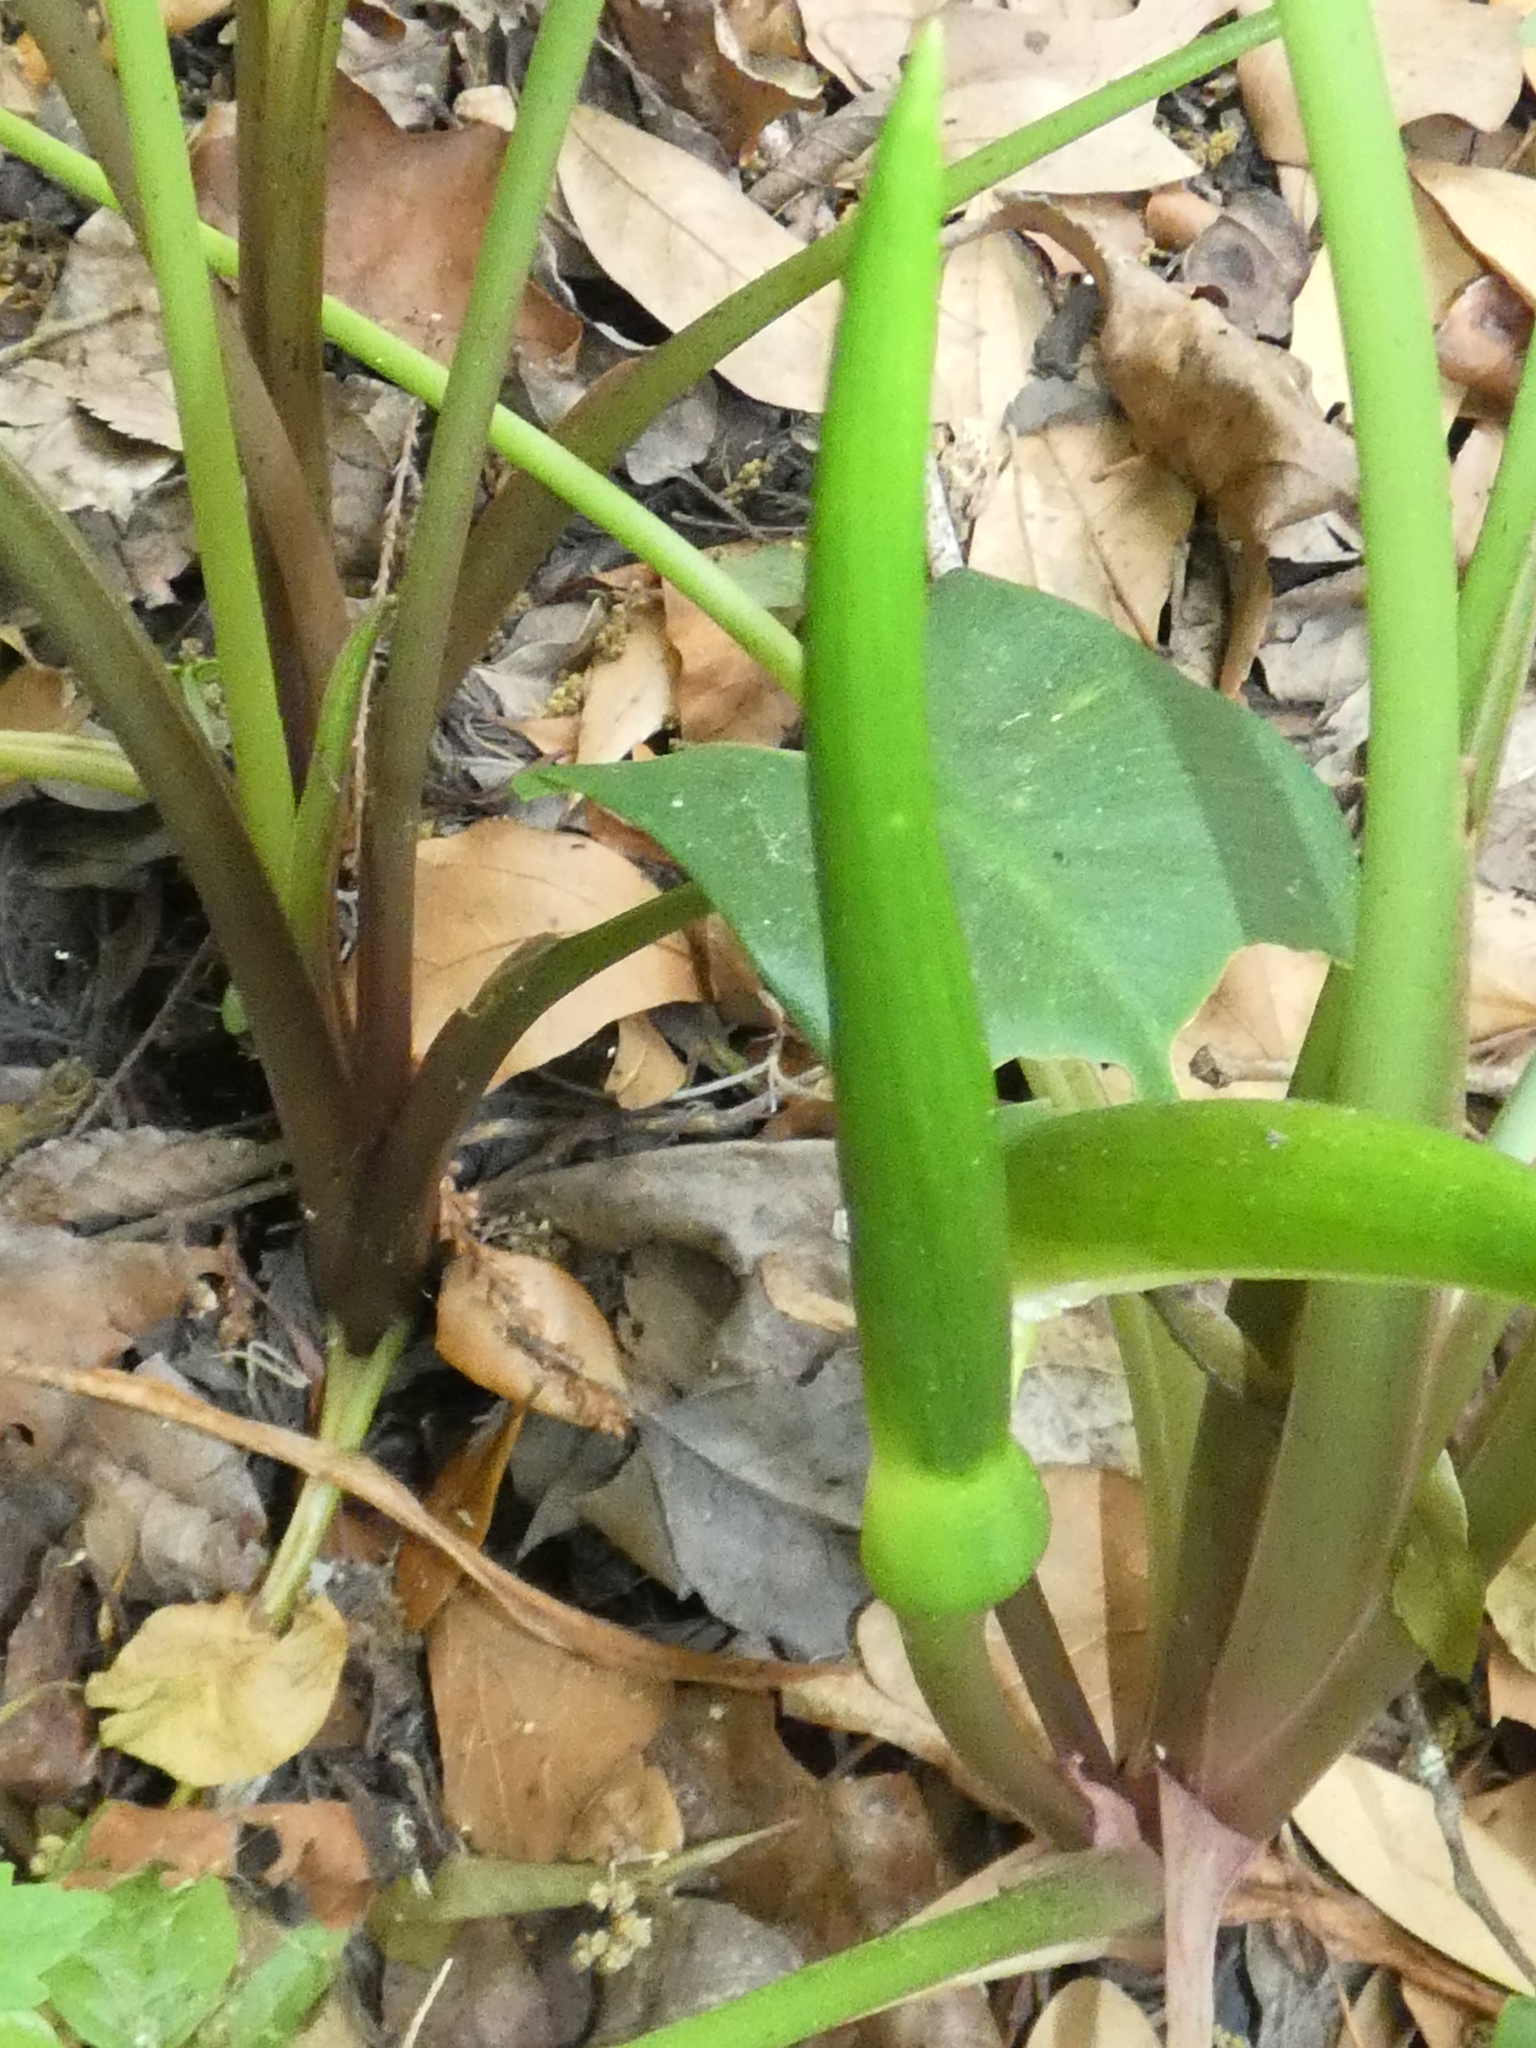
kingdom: Plantae
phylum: Tracheophyta
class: Liliopsida
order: Alismatales
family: Araceae
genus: Peltandra
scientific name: Peltandra virginica
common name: Arrow arum
